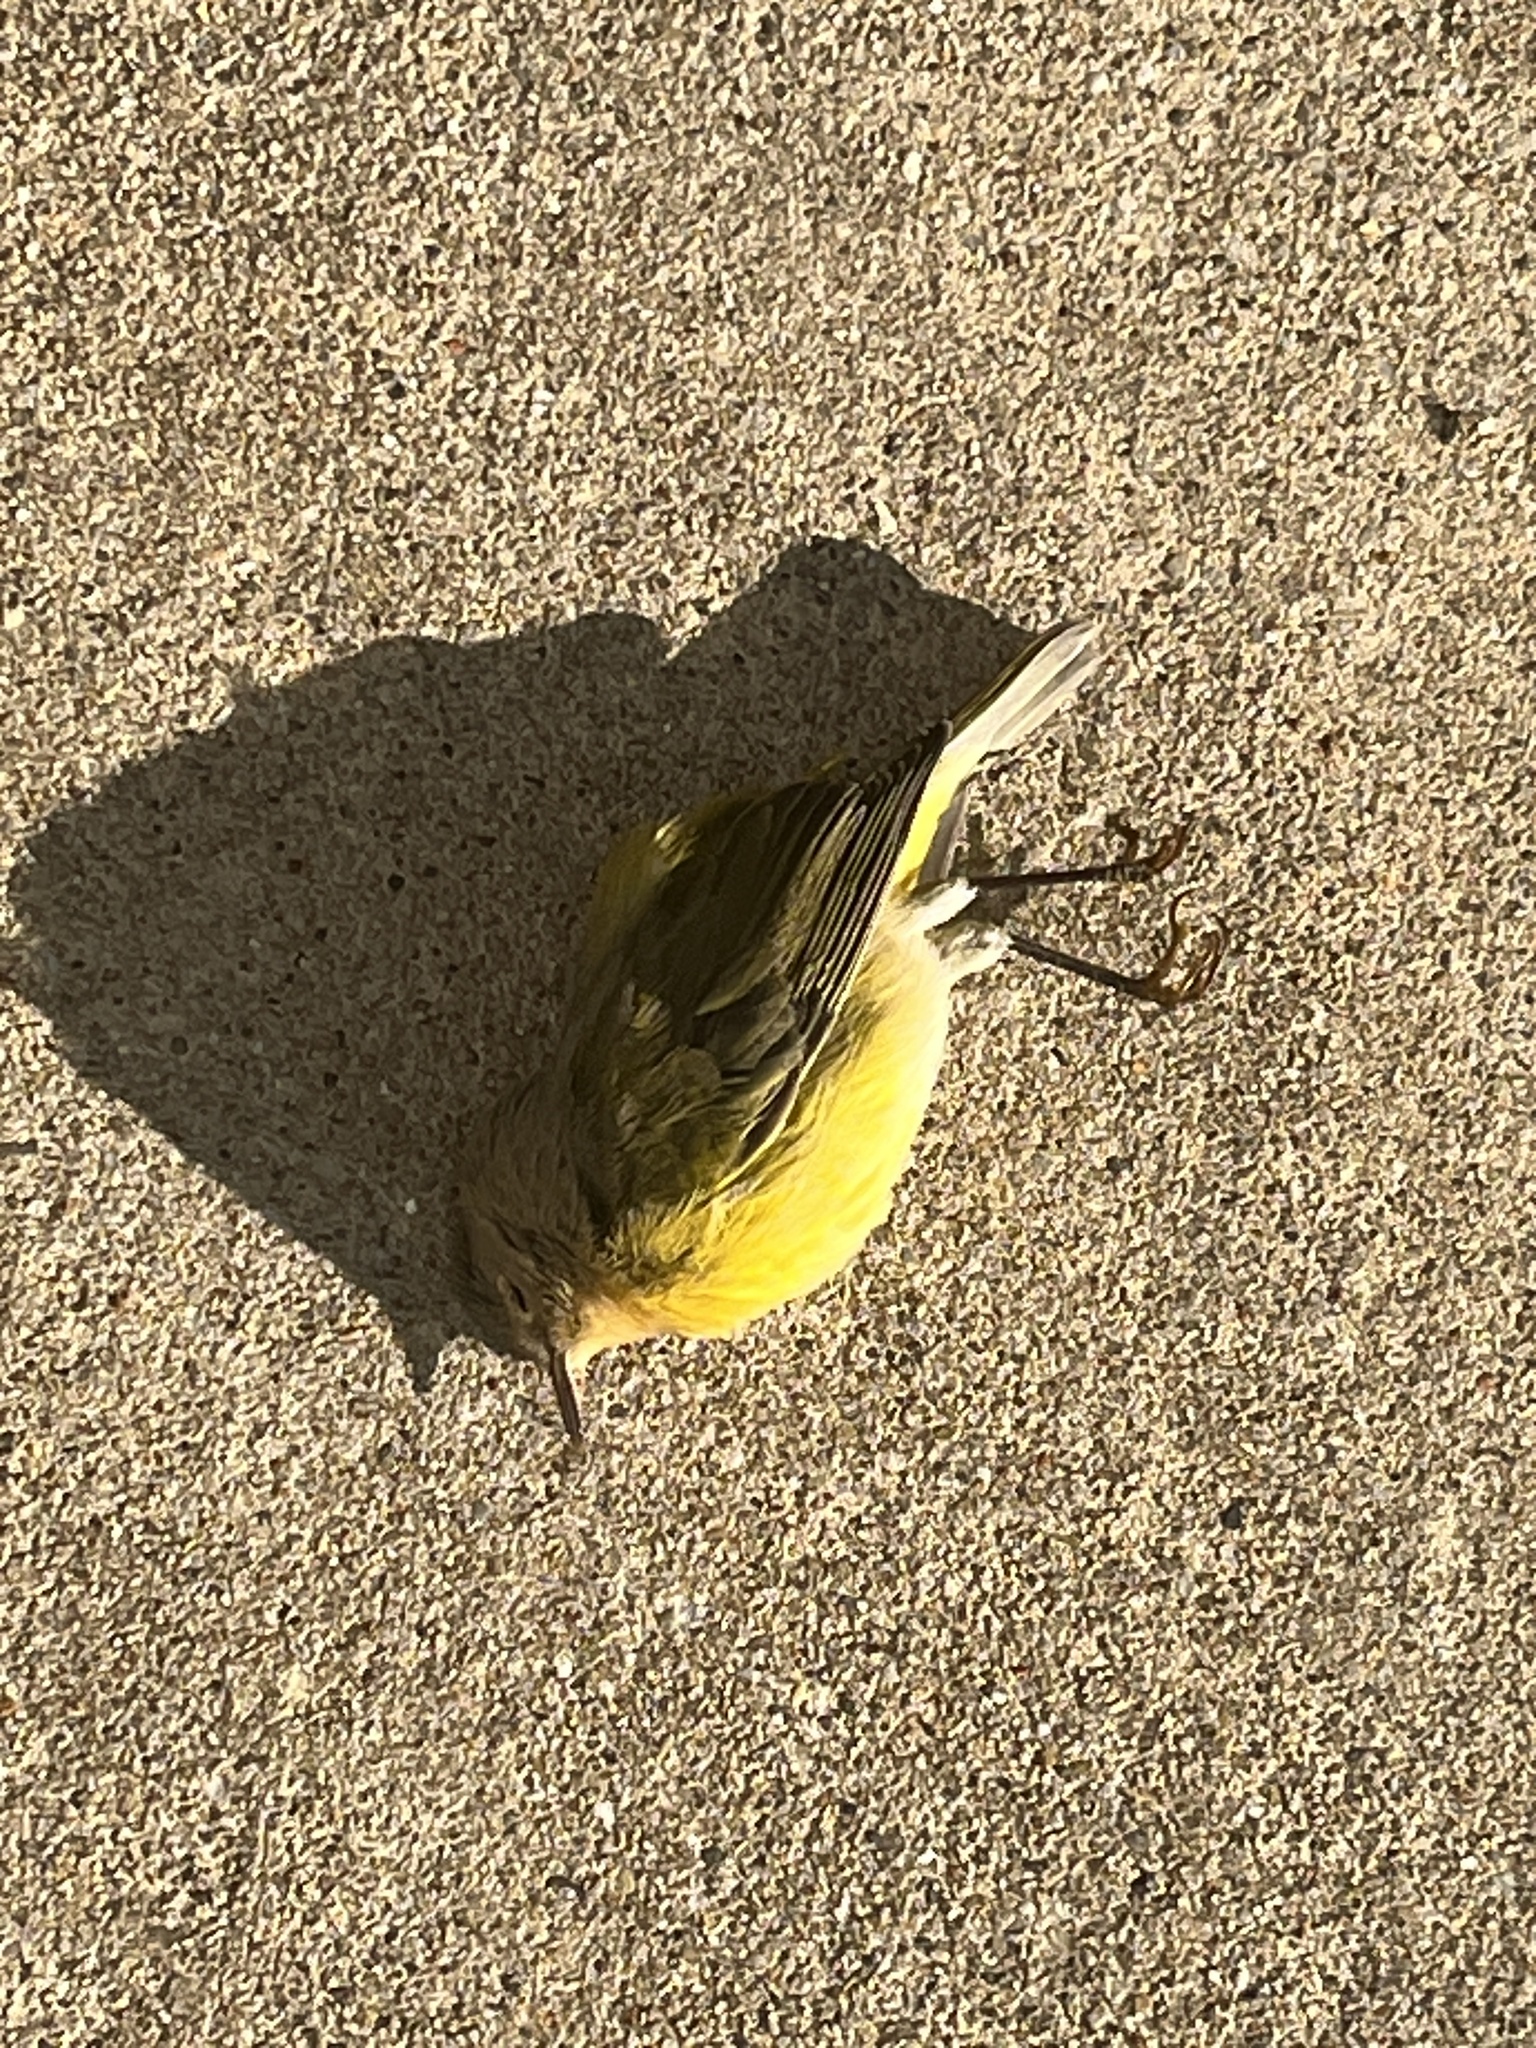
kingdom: Animalia
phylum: Chordata
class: Aves
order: Passeriformes
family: Parulidae
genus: Leiothlypis
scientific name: Leiothlypis ruficapilla
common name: Nashville warbler
